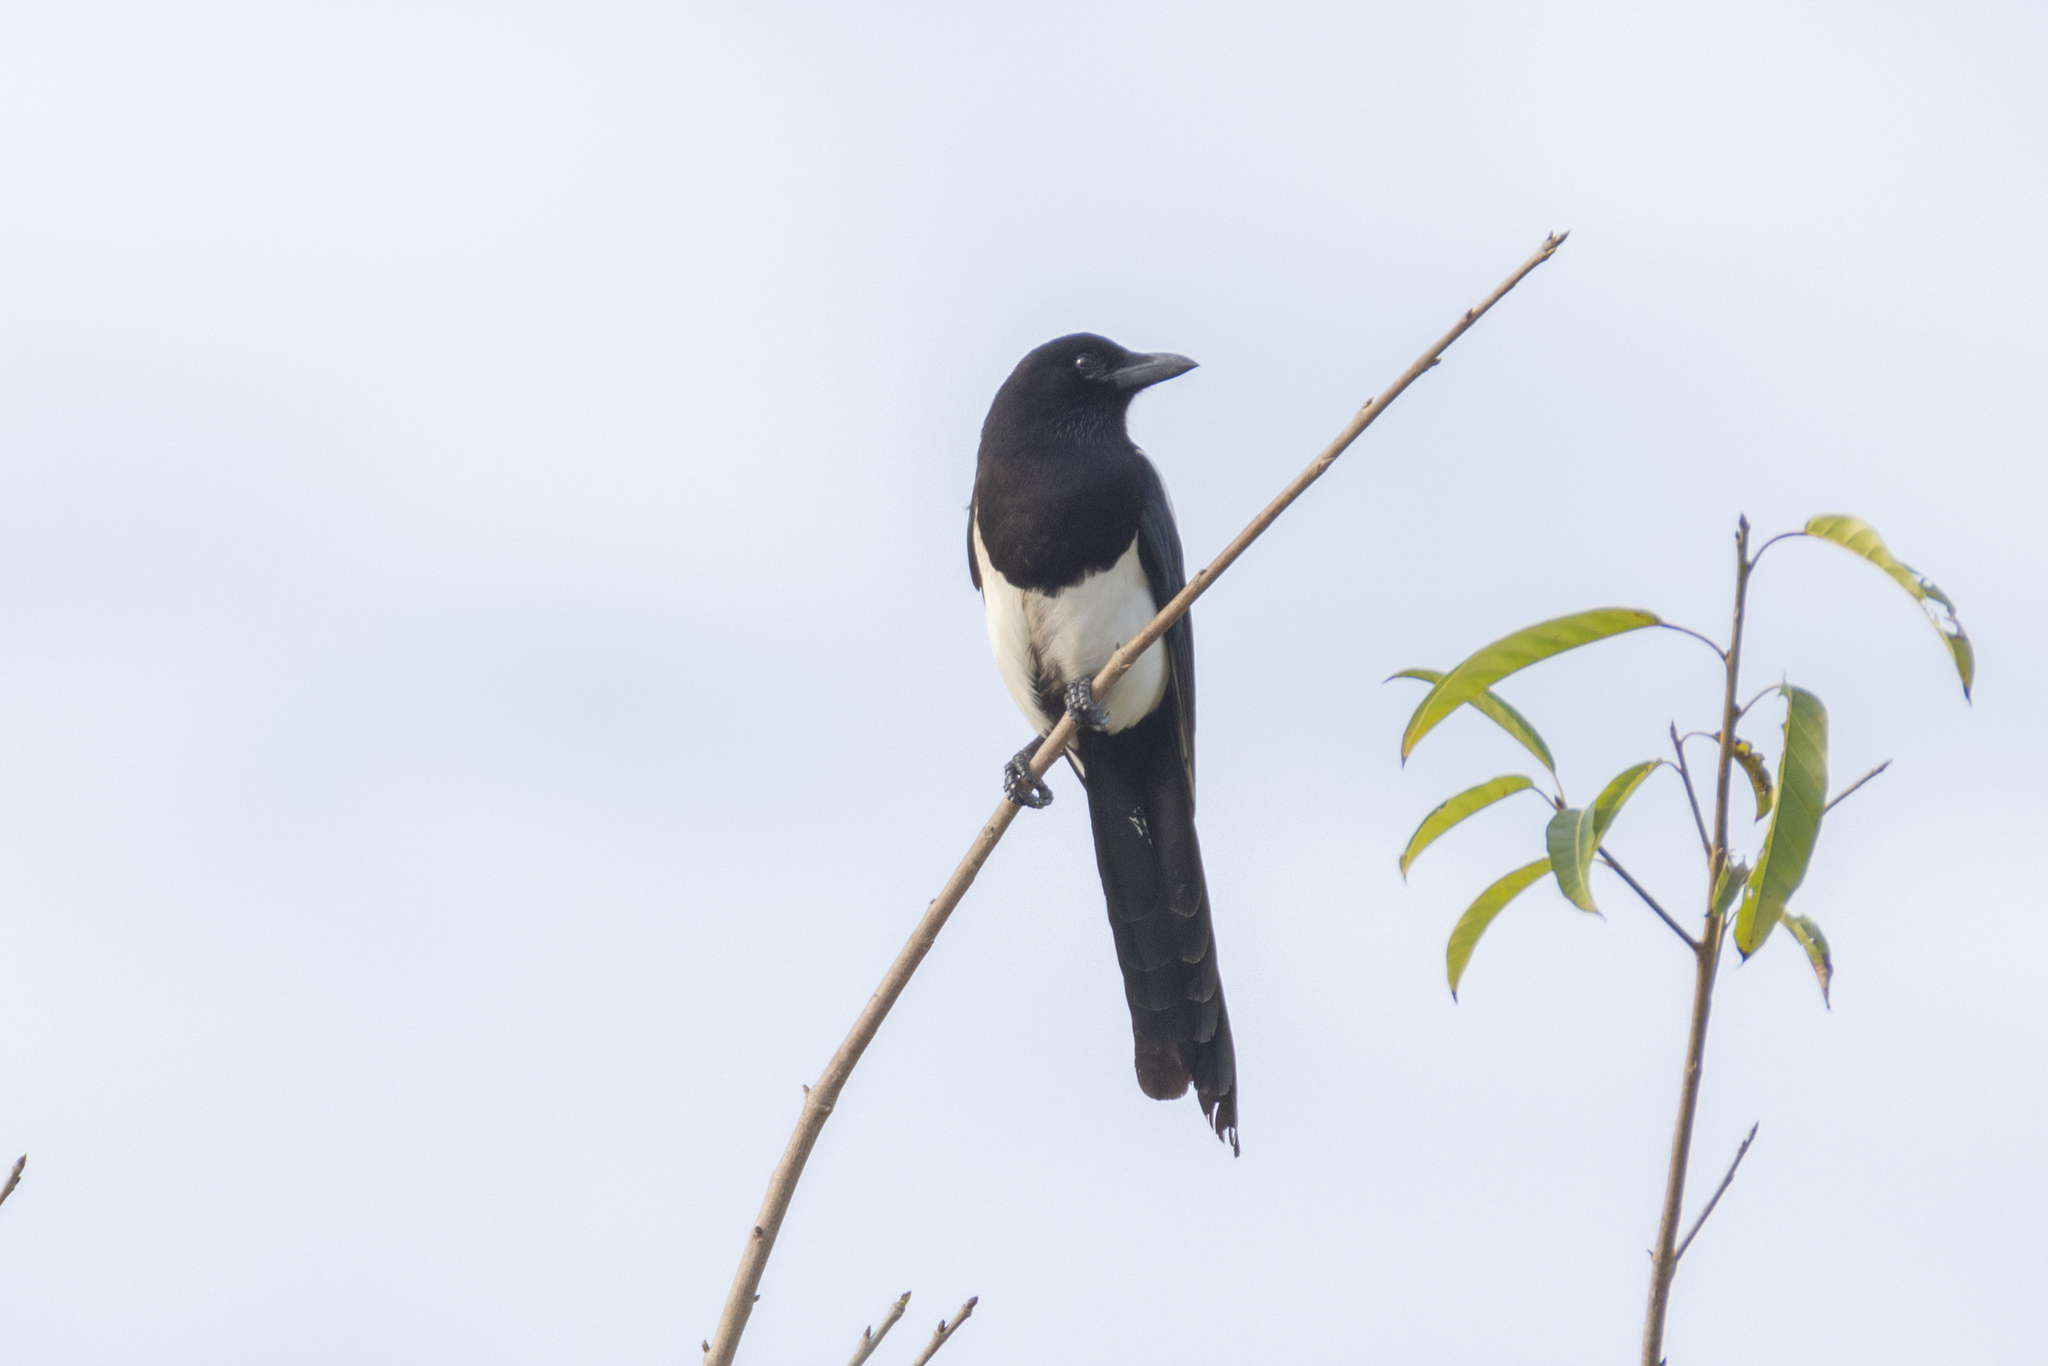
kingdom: Animalia
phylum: Chordata
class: Aves
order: Passeriformes
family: Corvidae
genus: Pica
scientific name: Pica serica
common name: Oriental magpie
